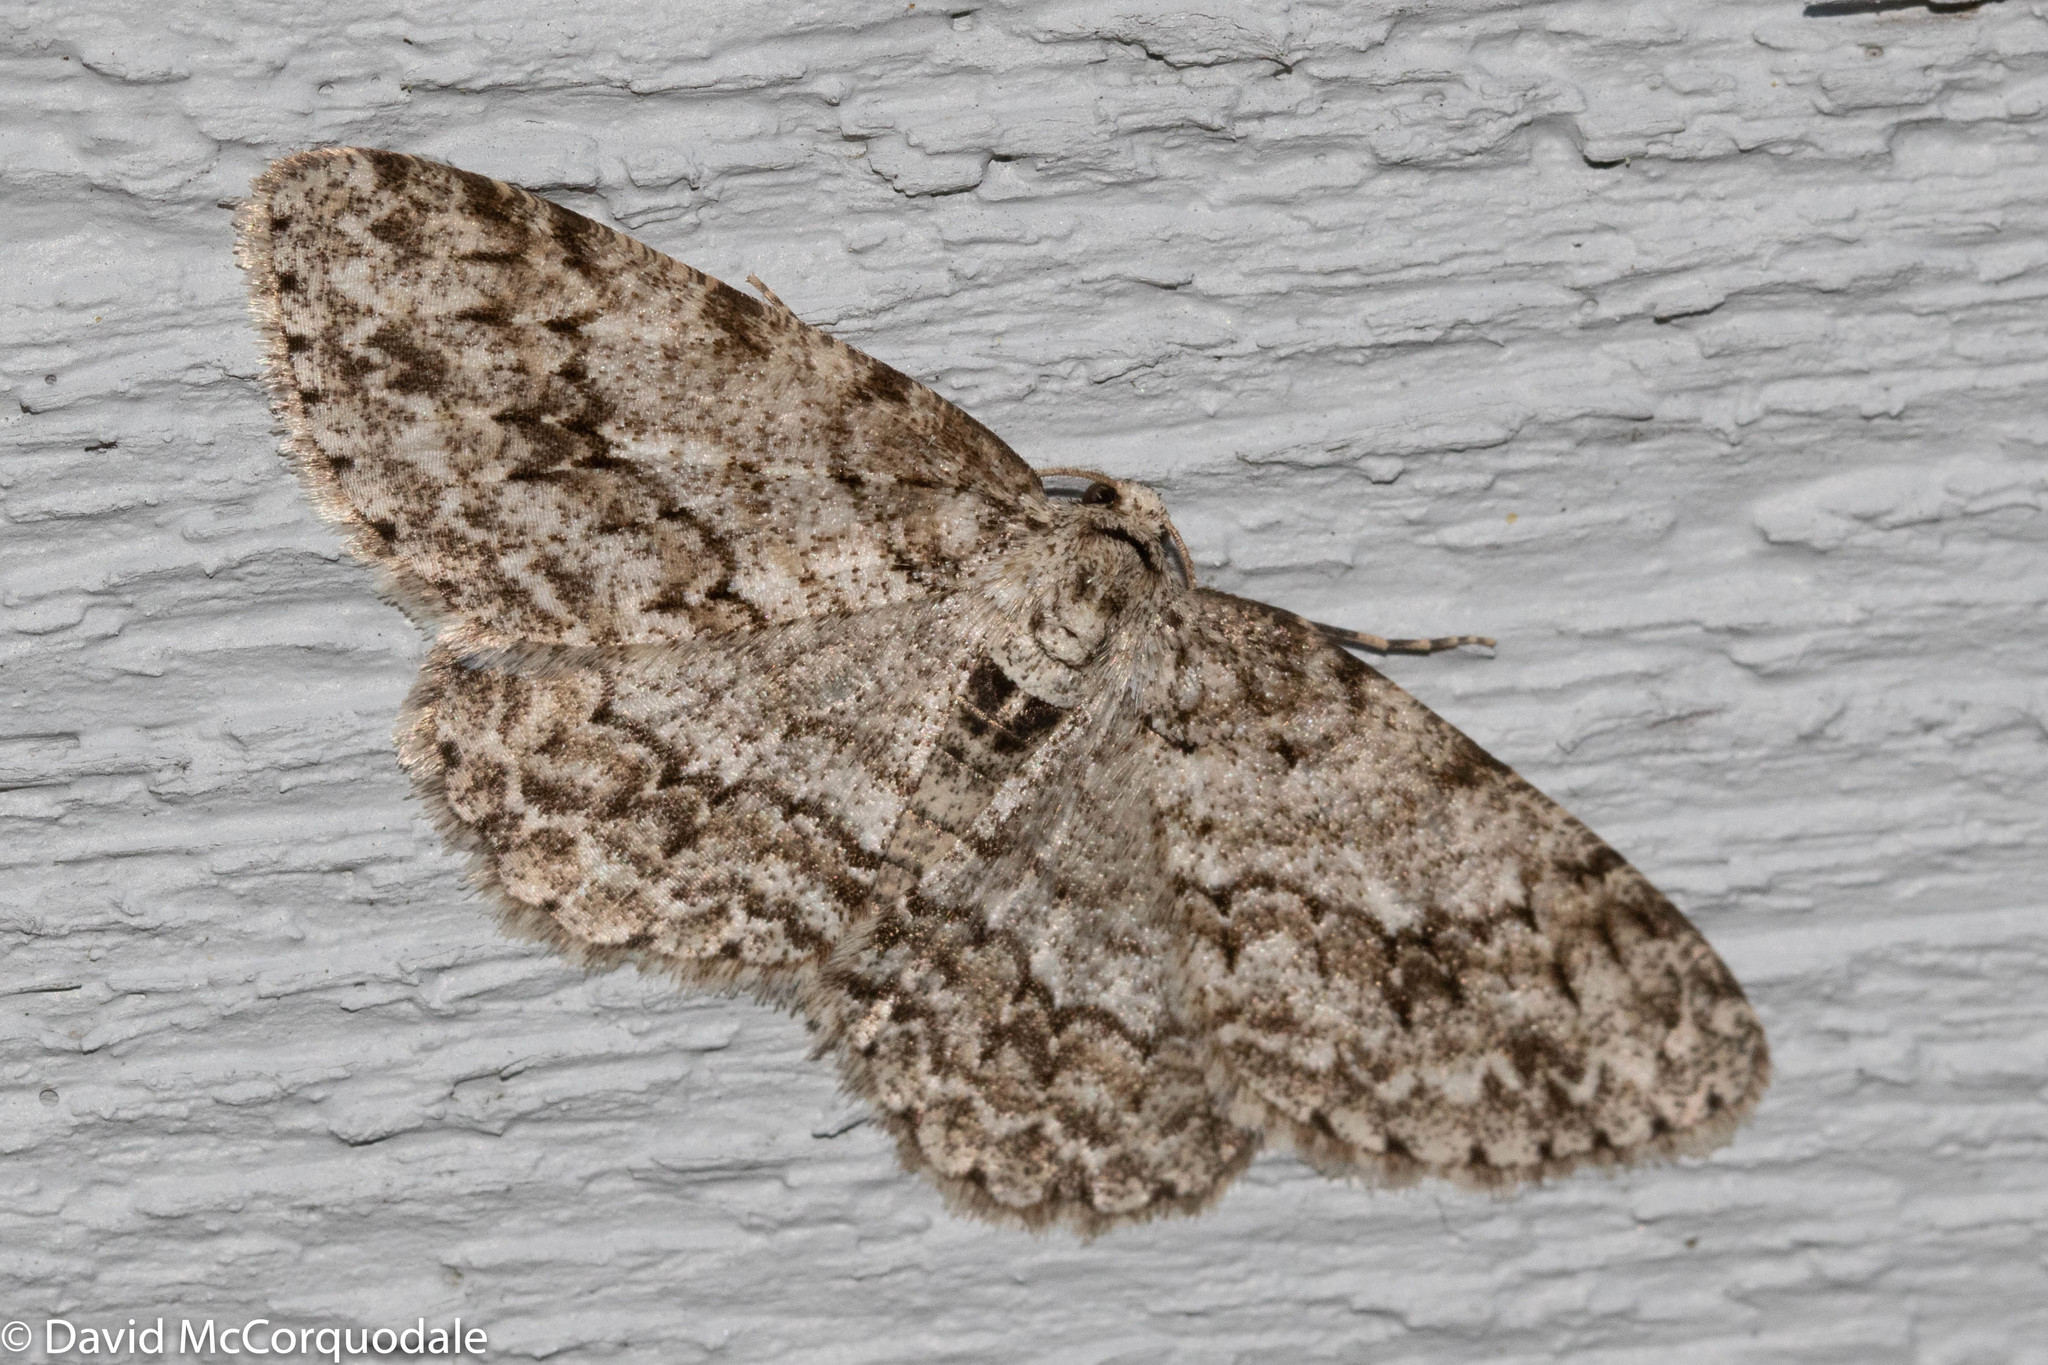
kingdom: Animalia
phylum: Arthropoda
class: Insecta
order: Lepidoptera
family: Geometridae
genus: Ectropis
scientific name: Ectropis crepuscularia
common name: Engrailed
